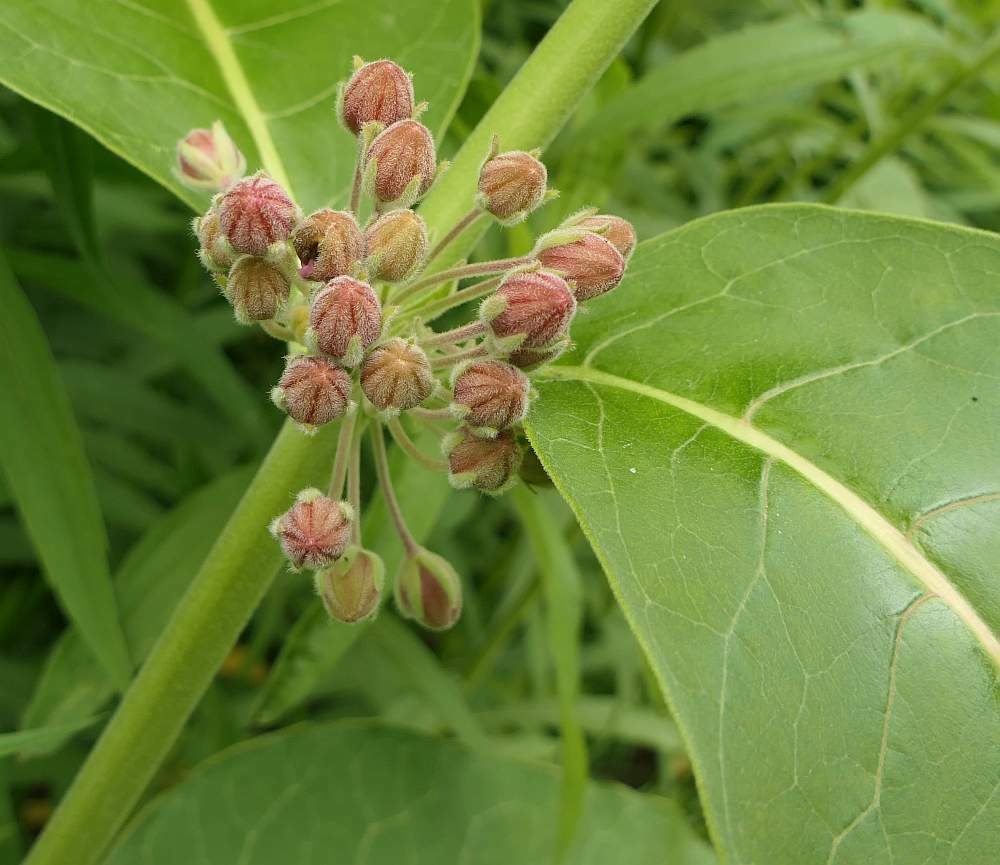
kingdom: Plantae
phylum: Tracheophyta
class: Magnoliopsida
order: Gentianales
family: Apocynaceae
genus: Asclepias
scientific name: Asclepias syriaca
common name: Common milkweed
